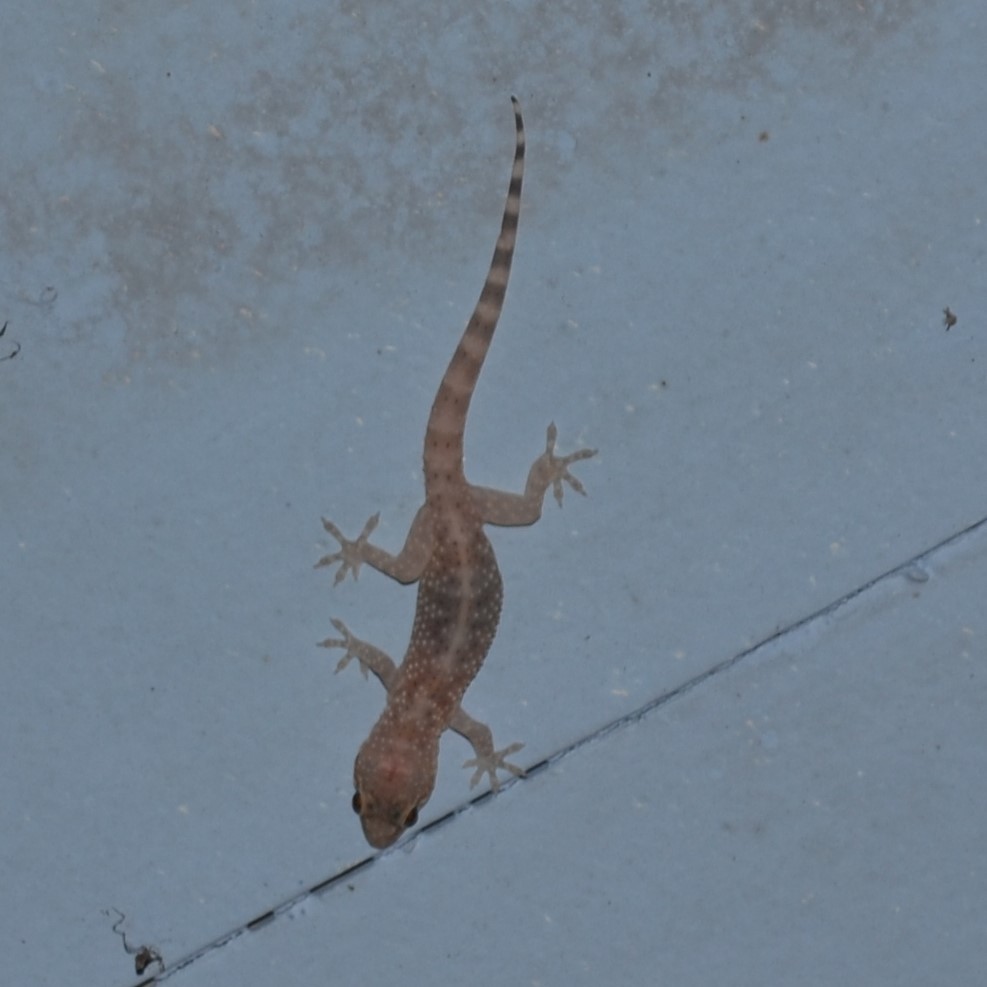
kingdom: Animalia
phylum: Chordata
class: Squamata
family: Gekkonidae
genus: Hemidactylus
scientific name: Hemidactylus turcicus
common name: Turkish gecko
